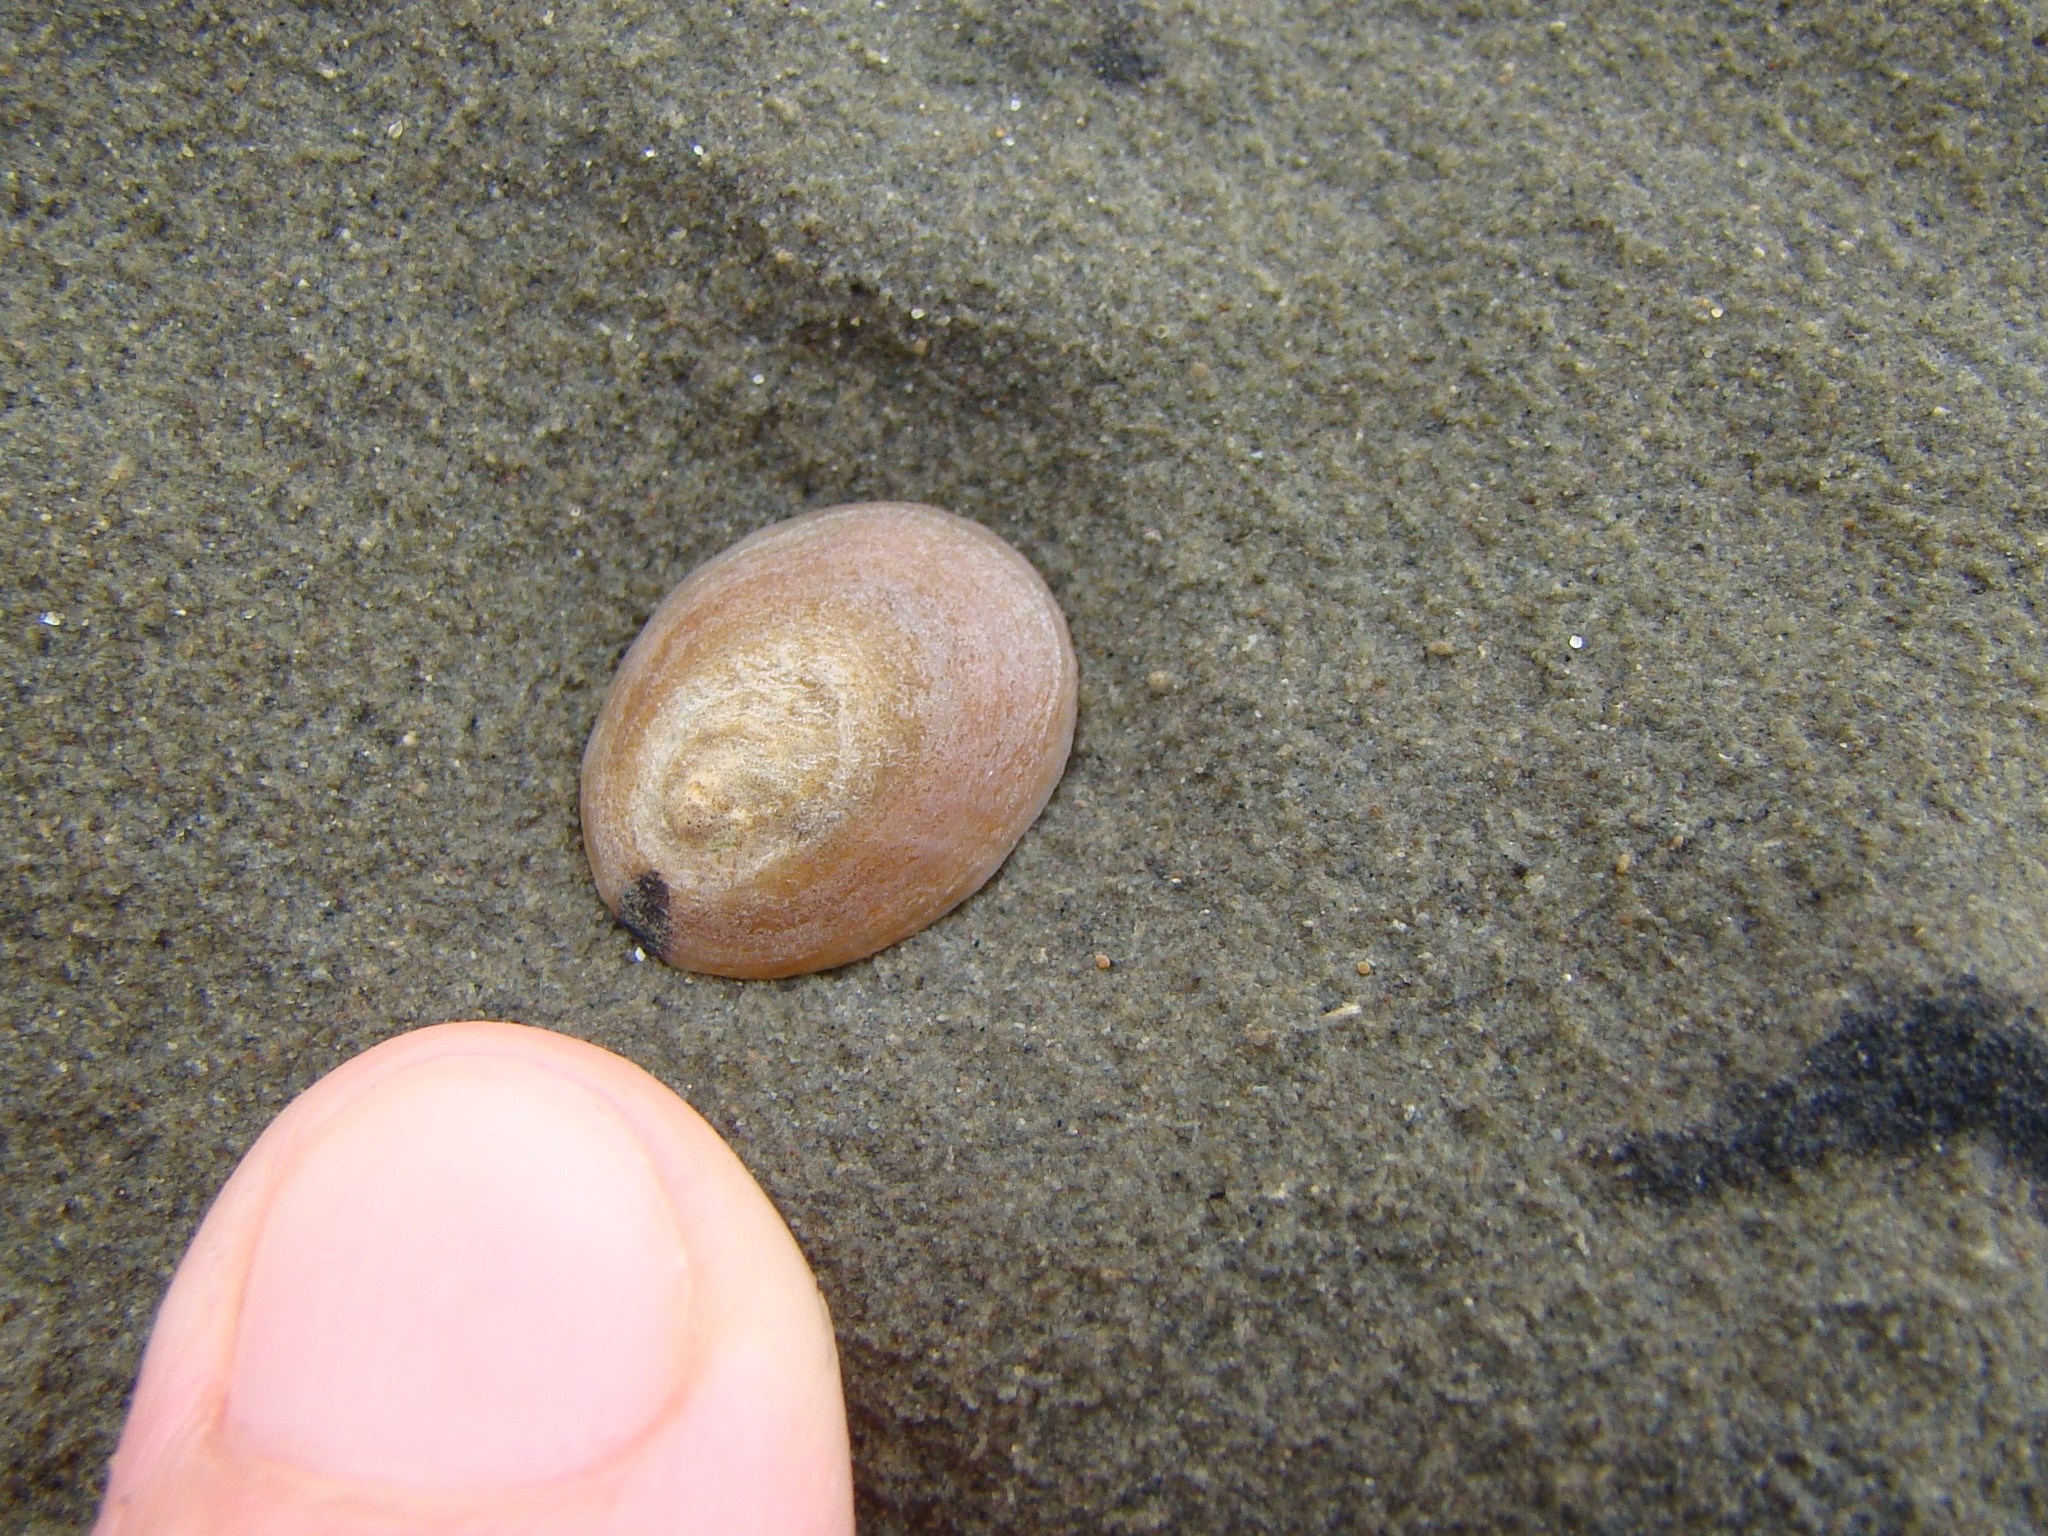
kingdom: Animalia
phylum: Mollusca
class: Gastropoda
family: Nacellidae
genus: Cellana
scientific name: Cellana flava
